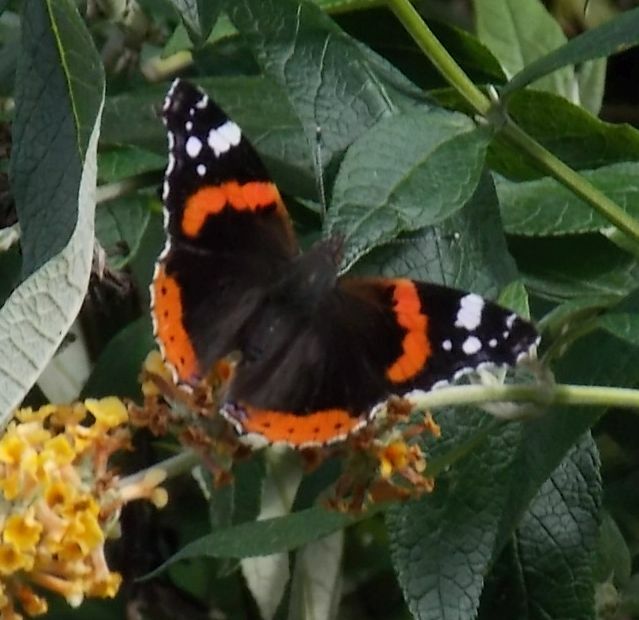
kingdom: Animalia
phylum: Arthropoda
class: Insecta
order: Lepidoptera
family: Nymphalidae
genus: Vanessa
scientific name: Vanessa atalanta
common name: Red admiral
